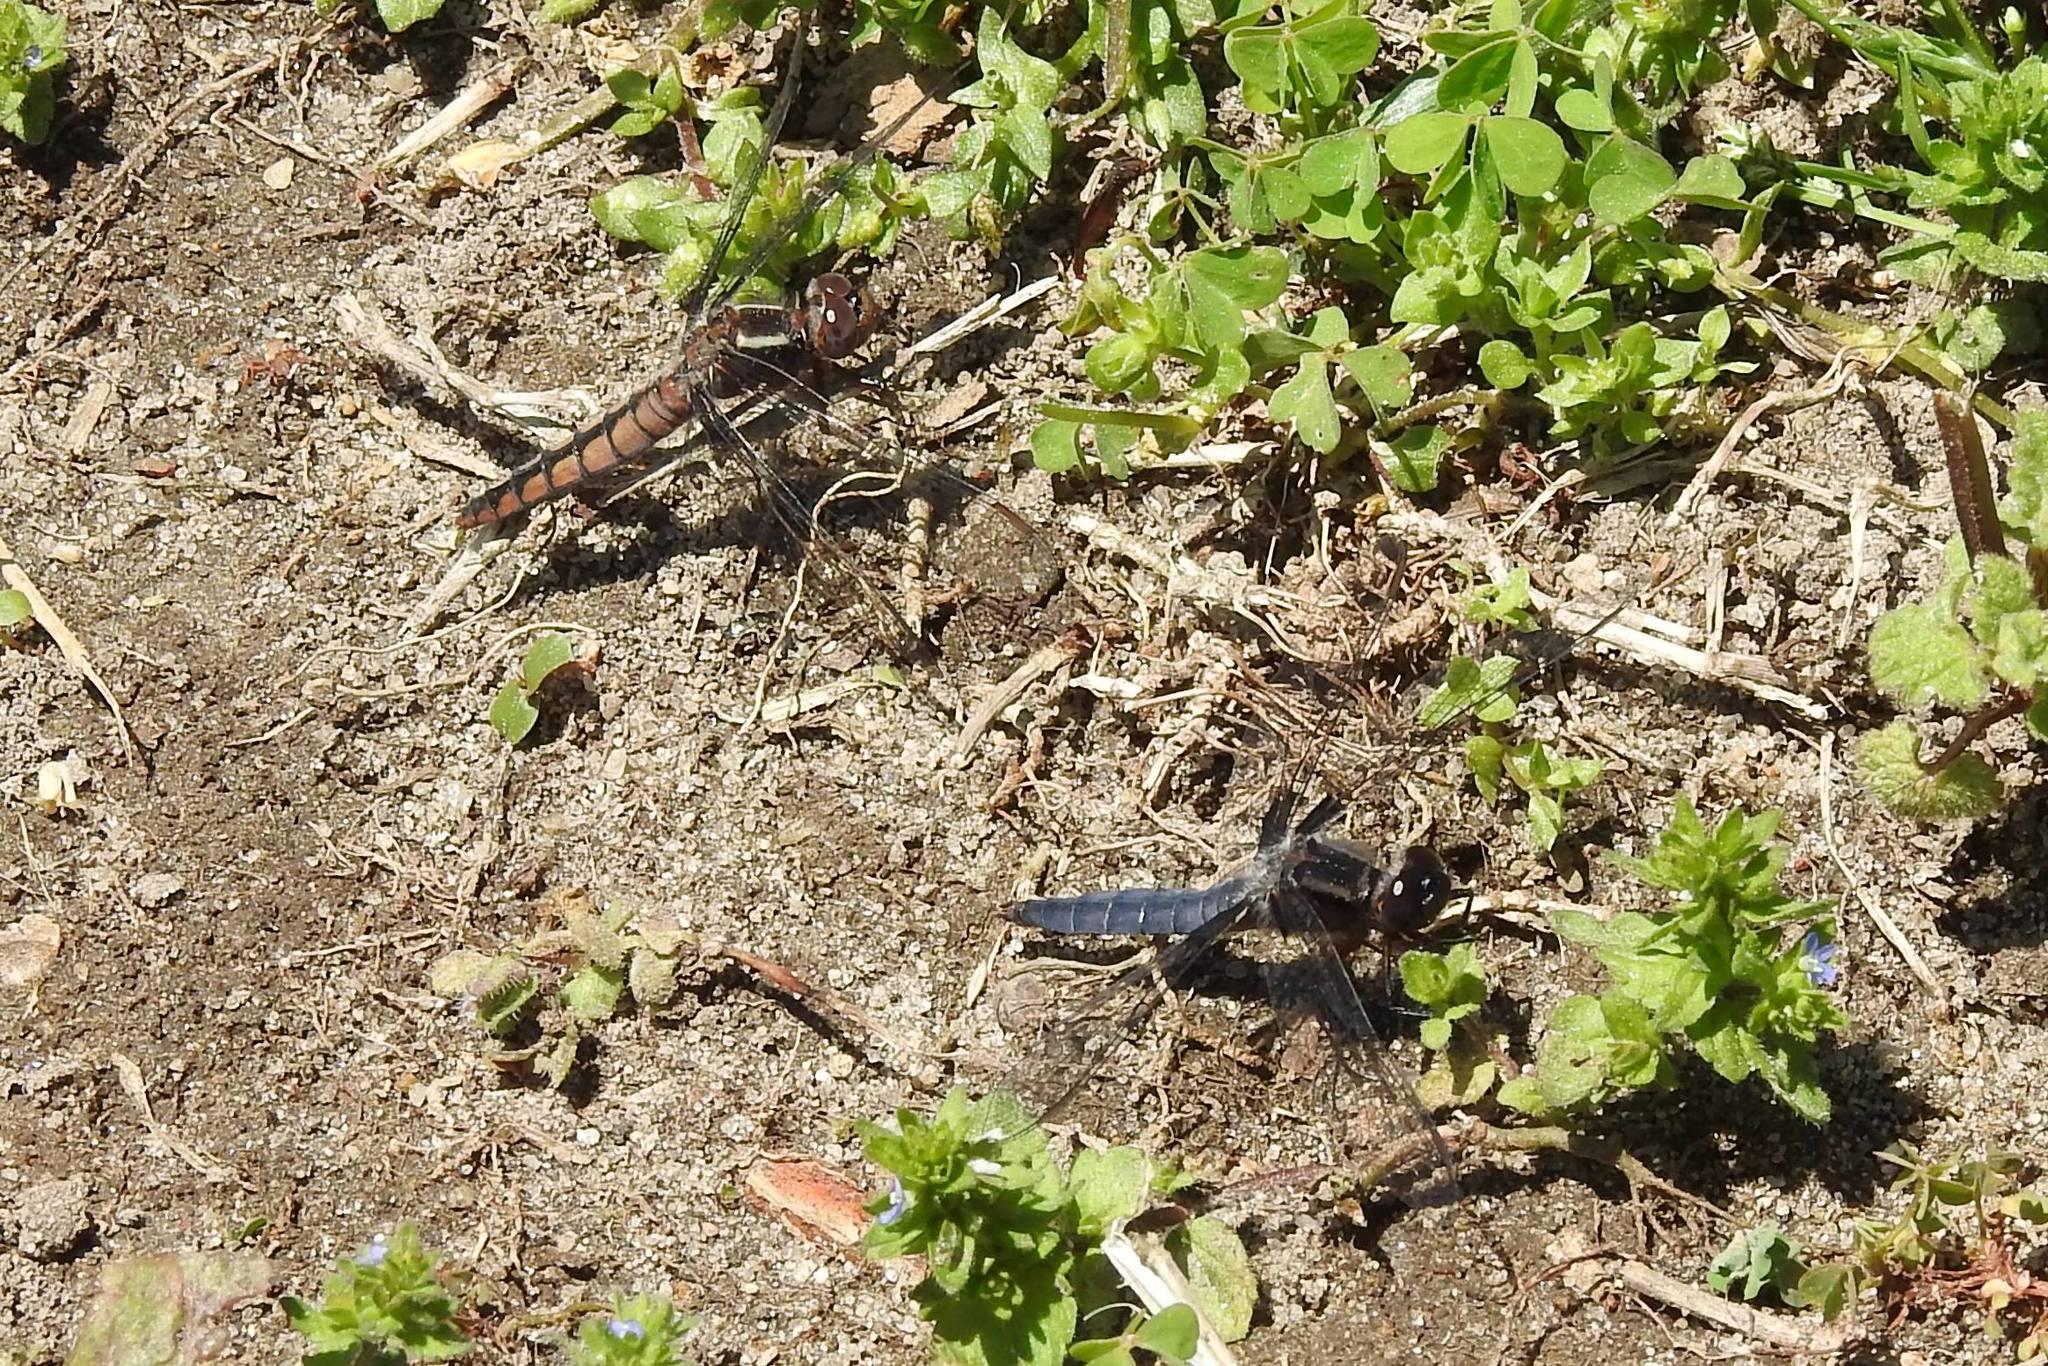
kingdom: Animalia
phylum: Arthropoda
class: Insecta
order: Odonata
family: Libellulidae
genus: Ladona
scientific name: Ladona deplanata
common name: Blue corporal
